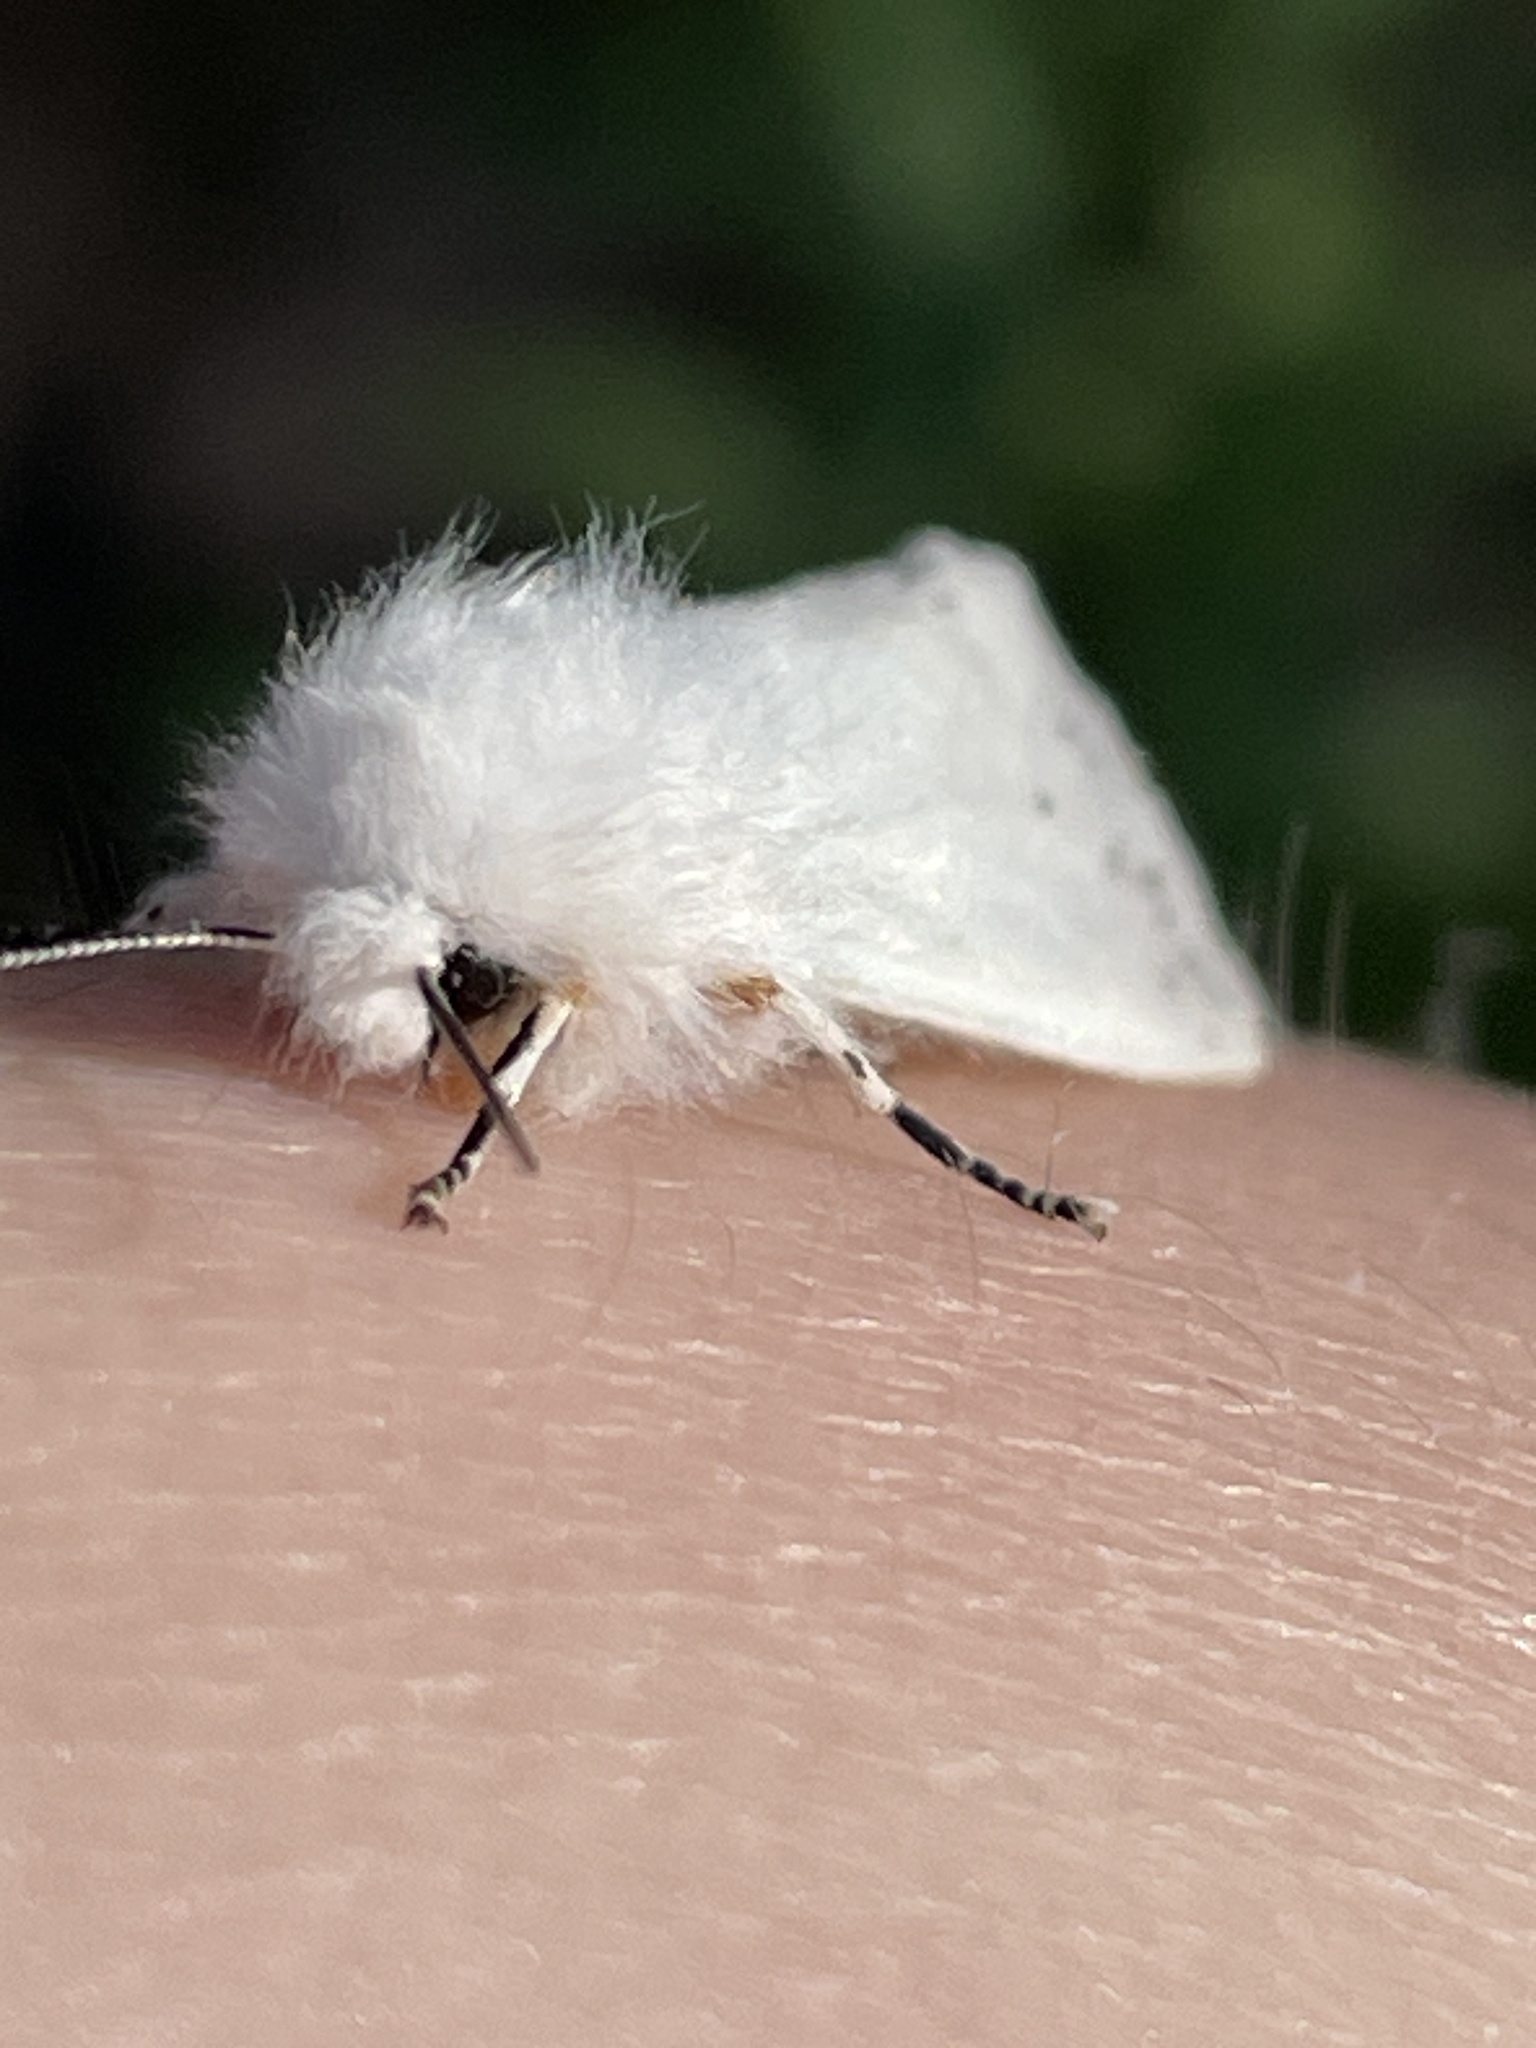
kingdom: Animalia
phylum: Arthropoda
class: Insecta
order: Lepidoptera
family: Erebidae
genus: Hyphantria
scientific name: Hyphantria cunea
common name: American white moth
